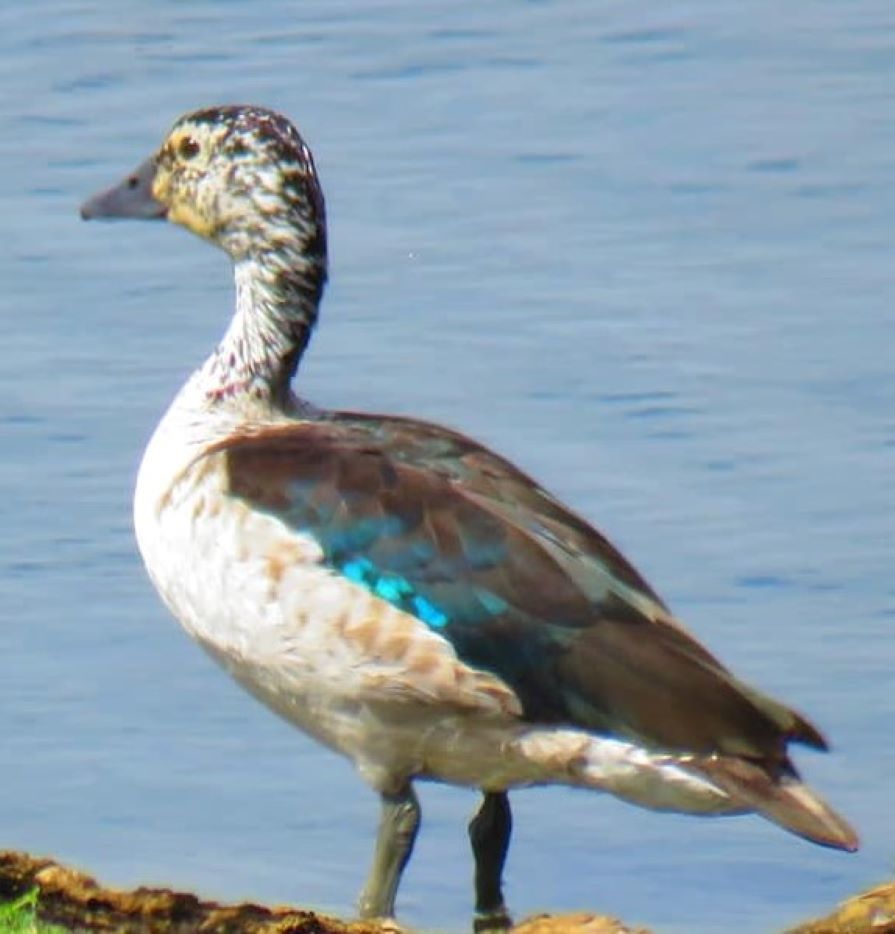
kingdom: Animalia
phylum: Chordata
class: Aves
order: Anseriformes
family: Anatidae
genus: Sarkidiornis
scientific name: Sarkidiornis melanotos
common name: Comb duck
